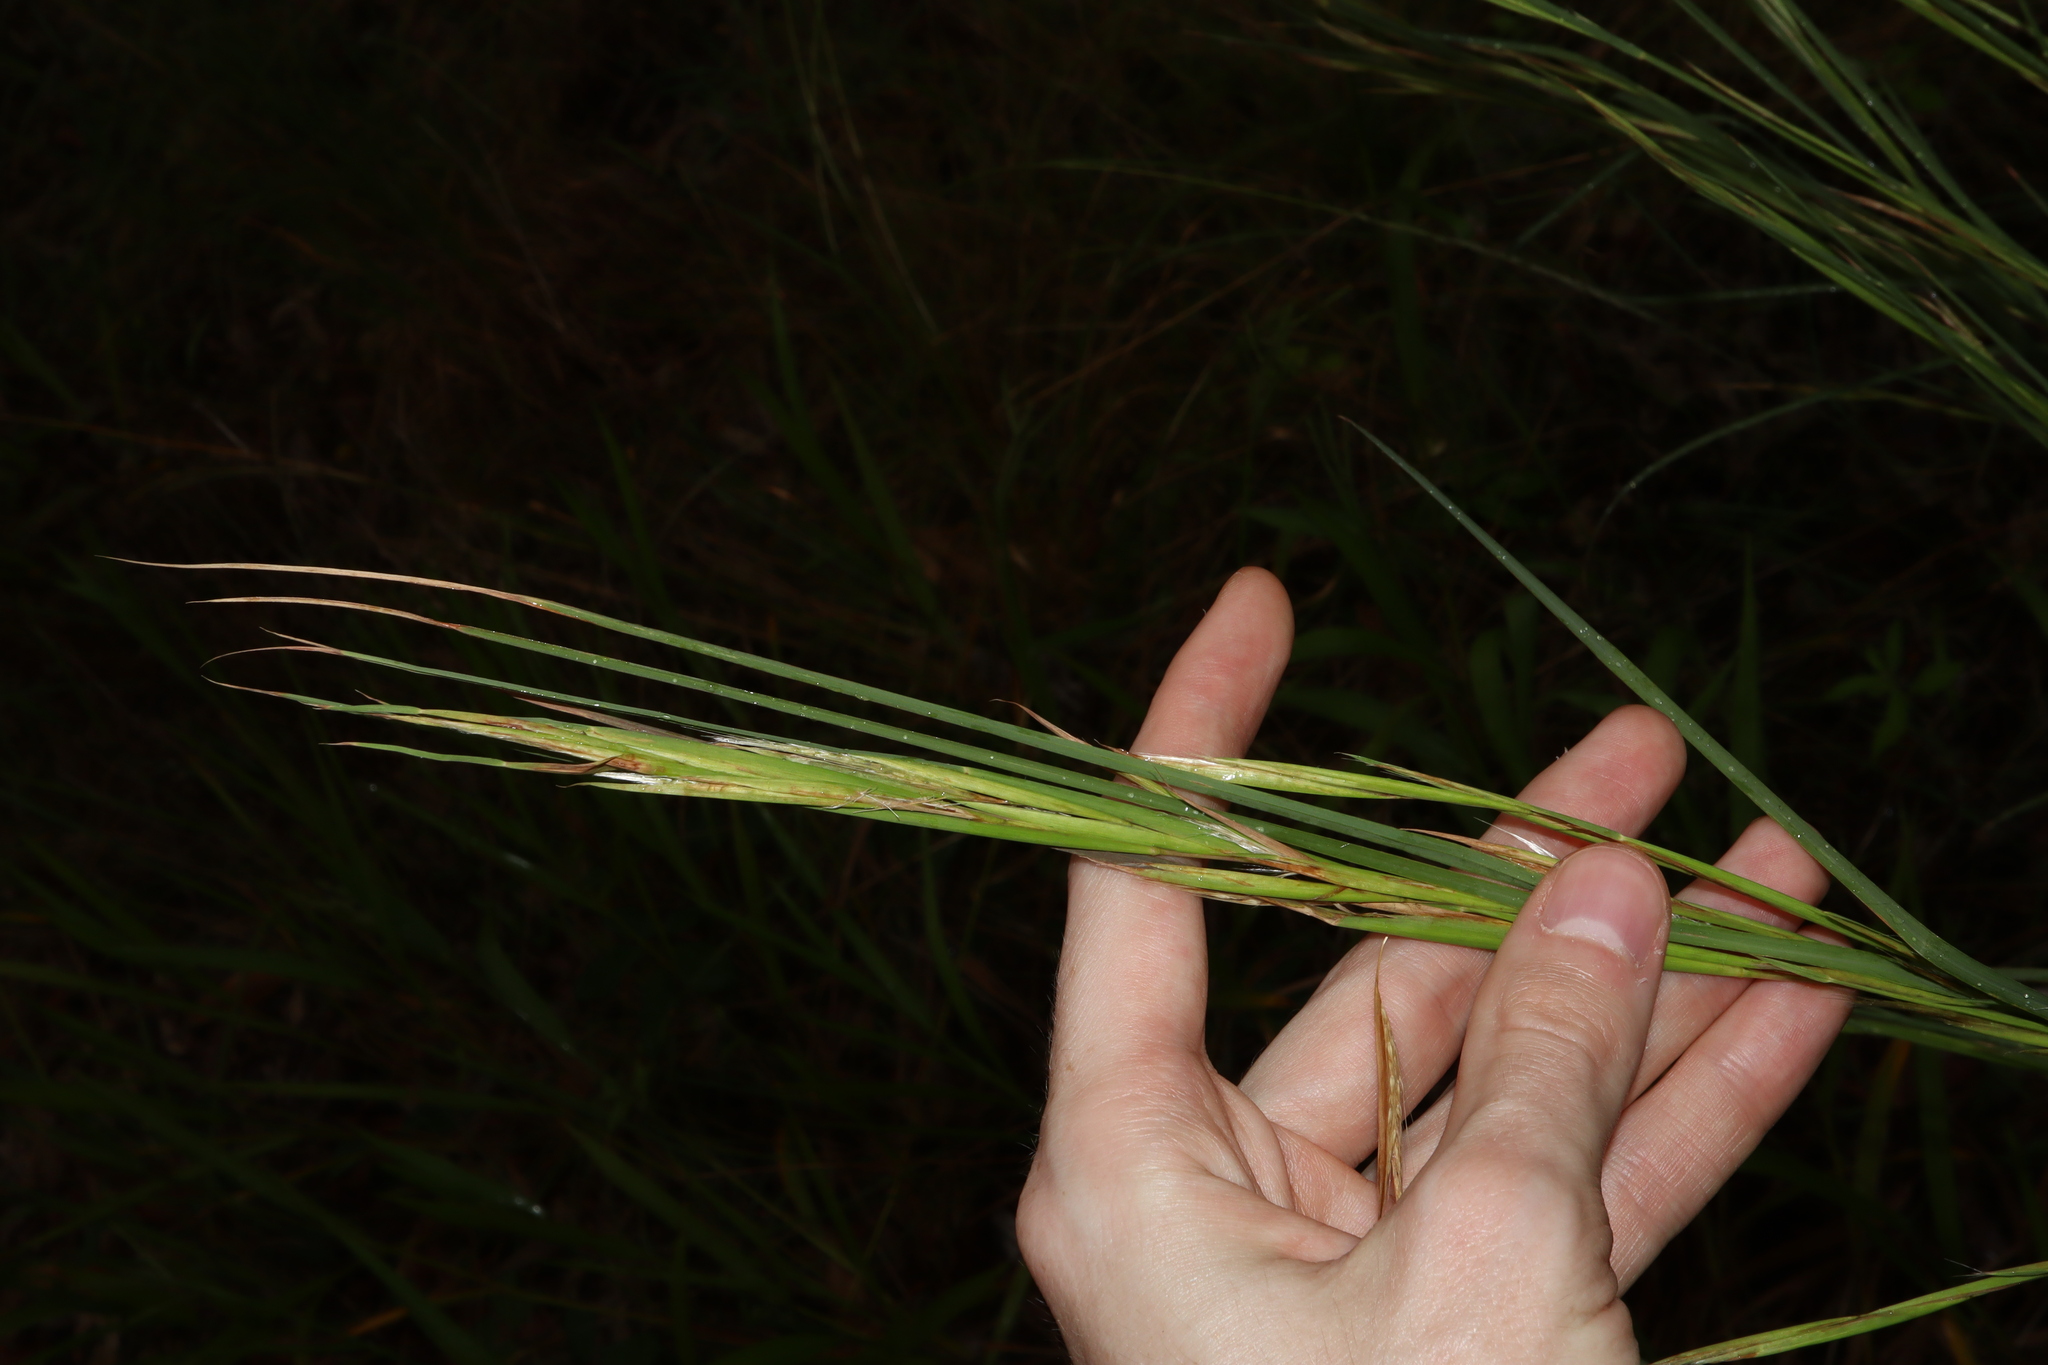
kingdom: Plantae
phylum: Tracheophyta
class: Liliopsida
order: Poales
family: Poaceae
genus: Andropogon
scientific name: Andropogon virginicus
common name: Broomsedge bluestem
